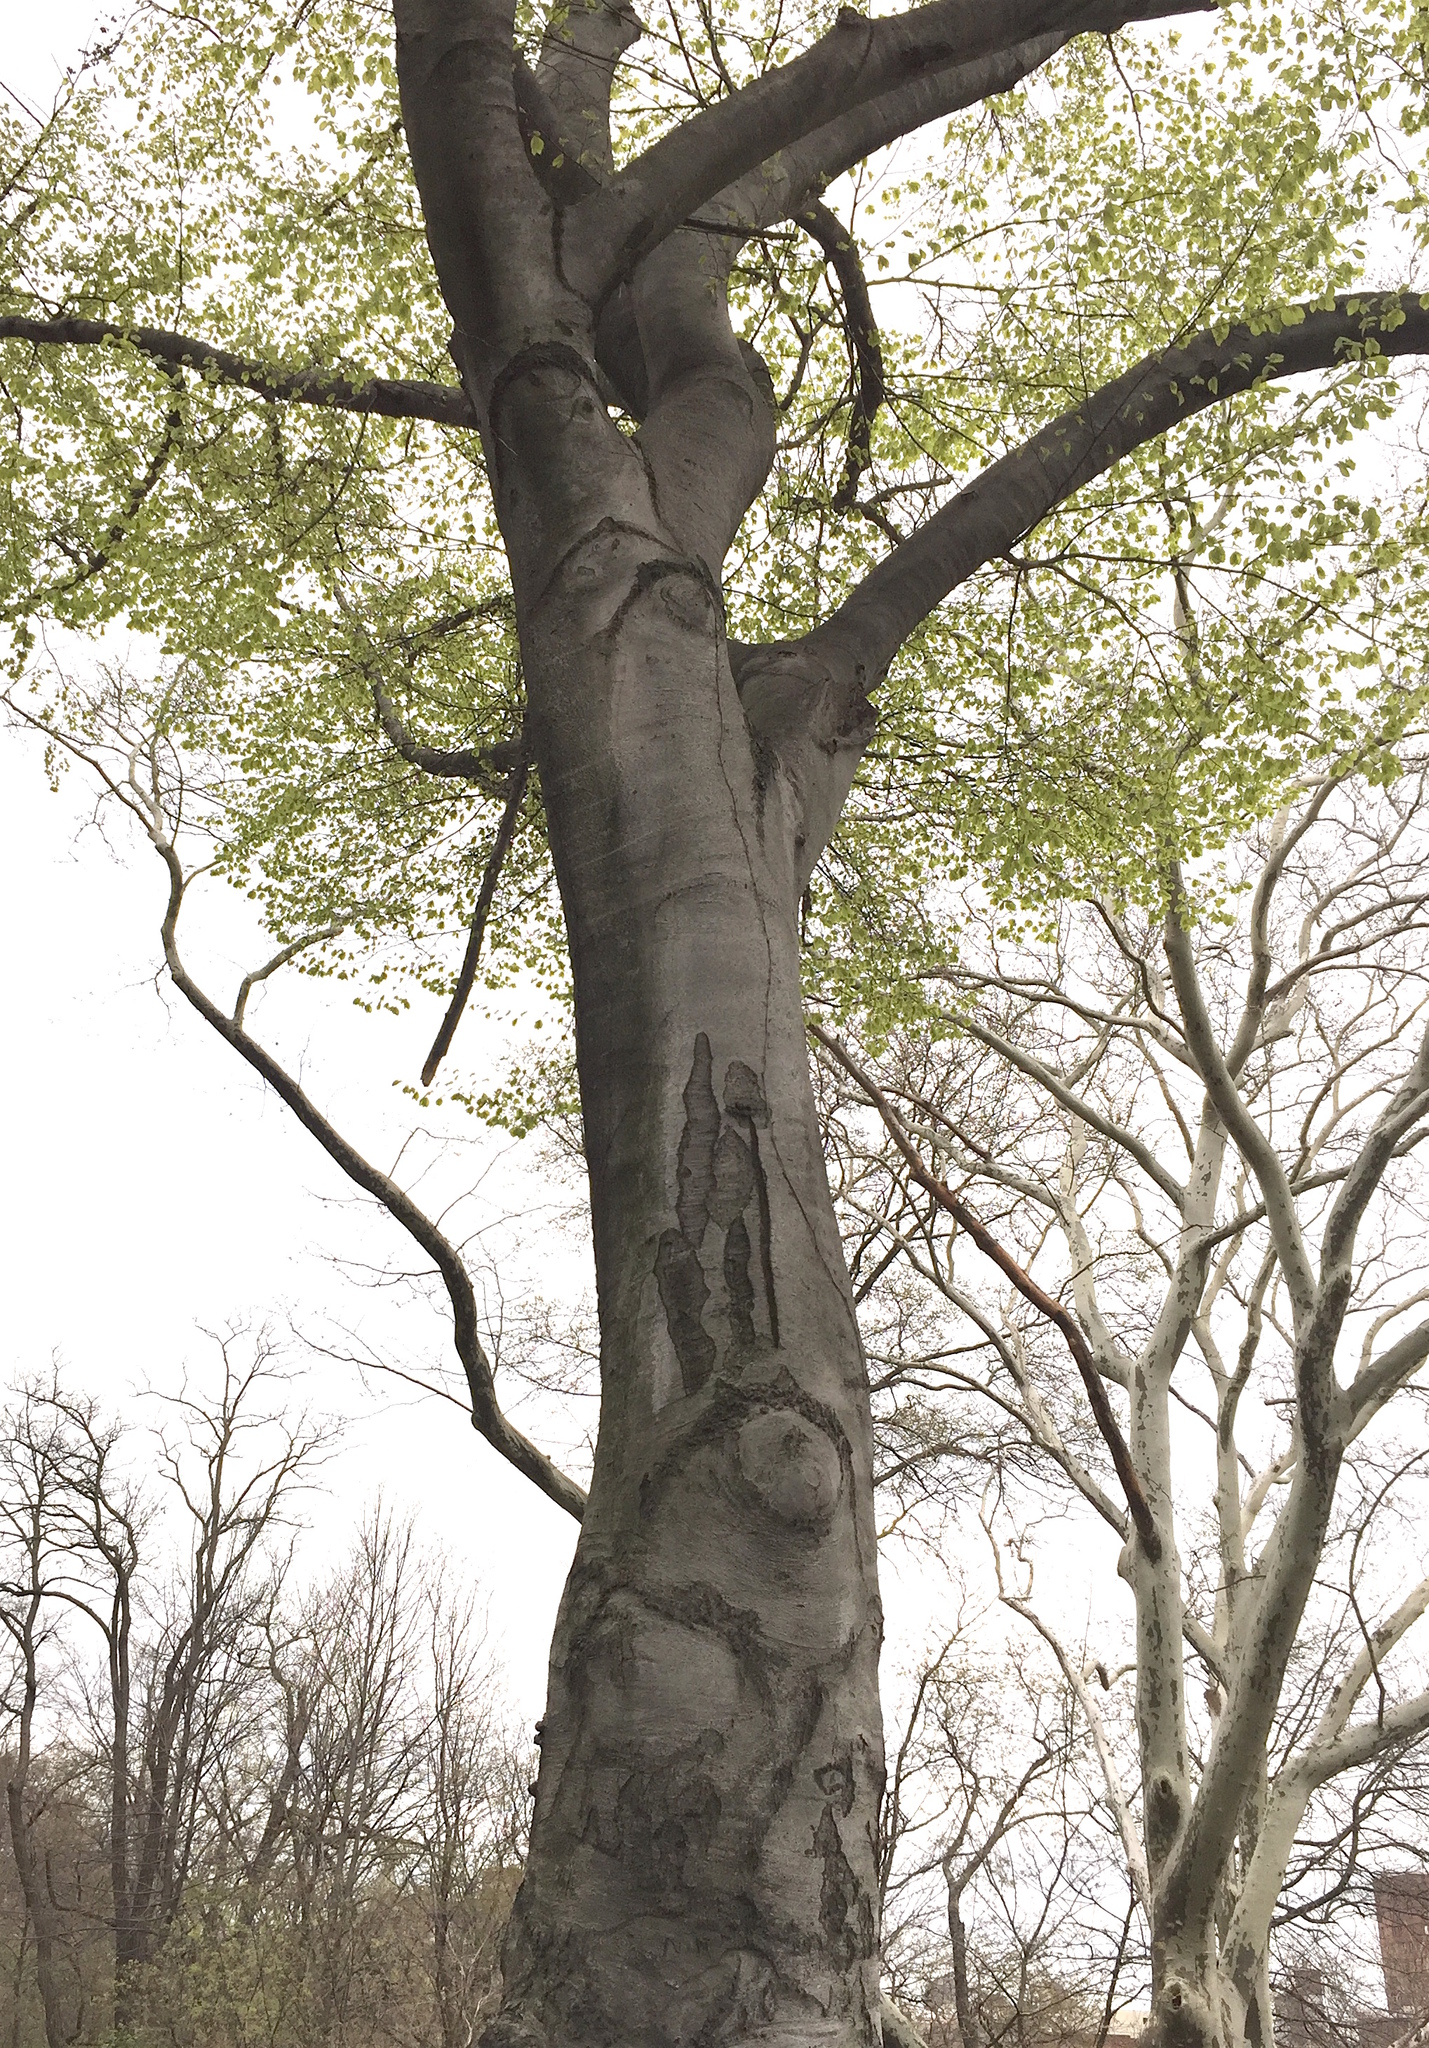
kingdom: Plantae
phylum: Tracheophyta
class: Magnoliopsida
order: Fagales
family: Fagaceae
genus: Fagus
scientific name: Fagus grandifolia
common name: American beech
